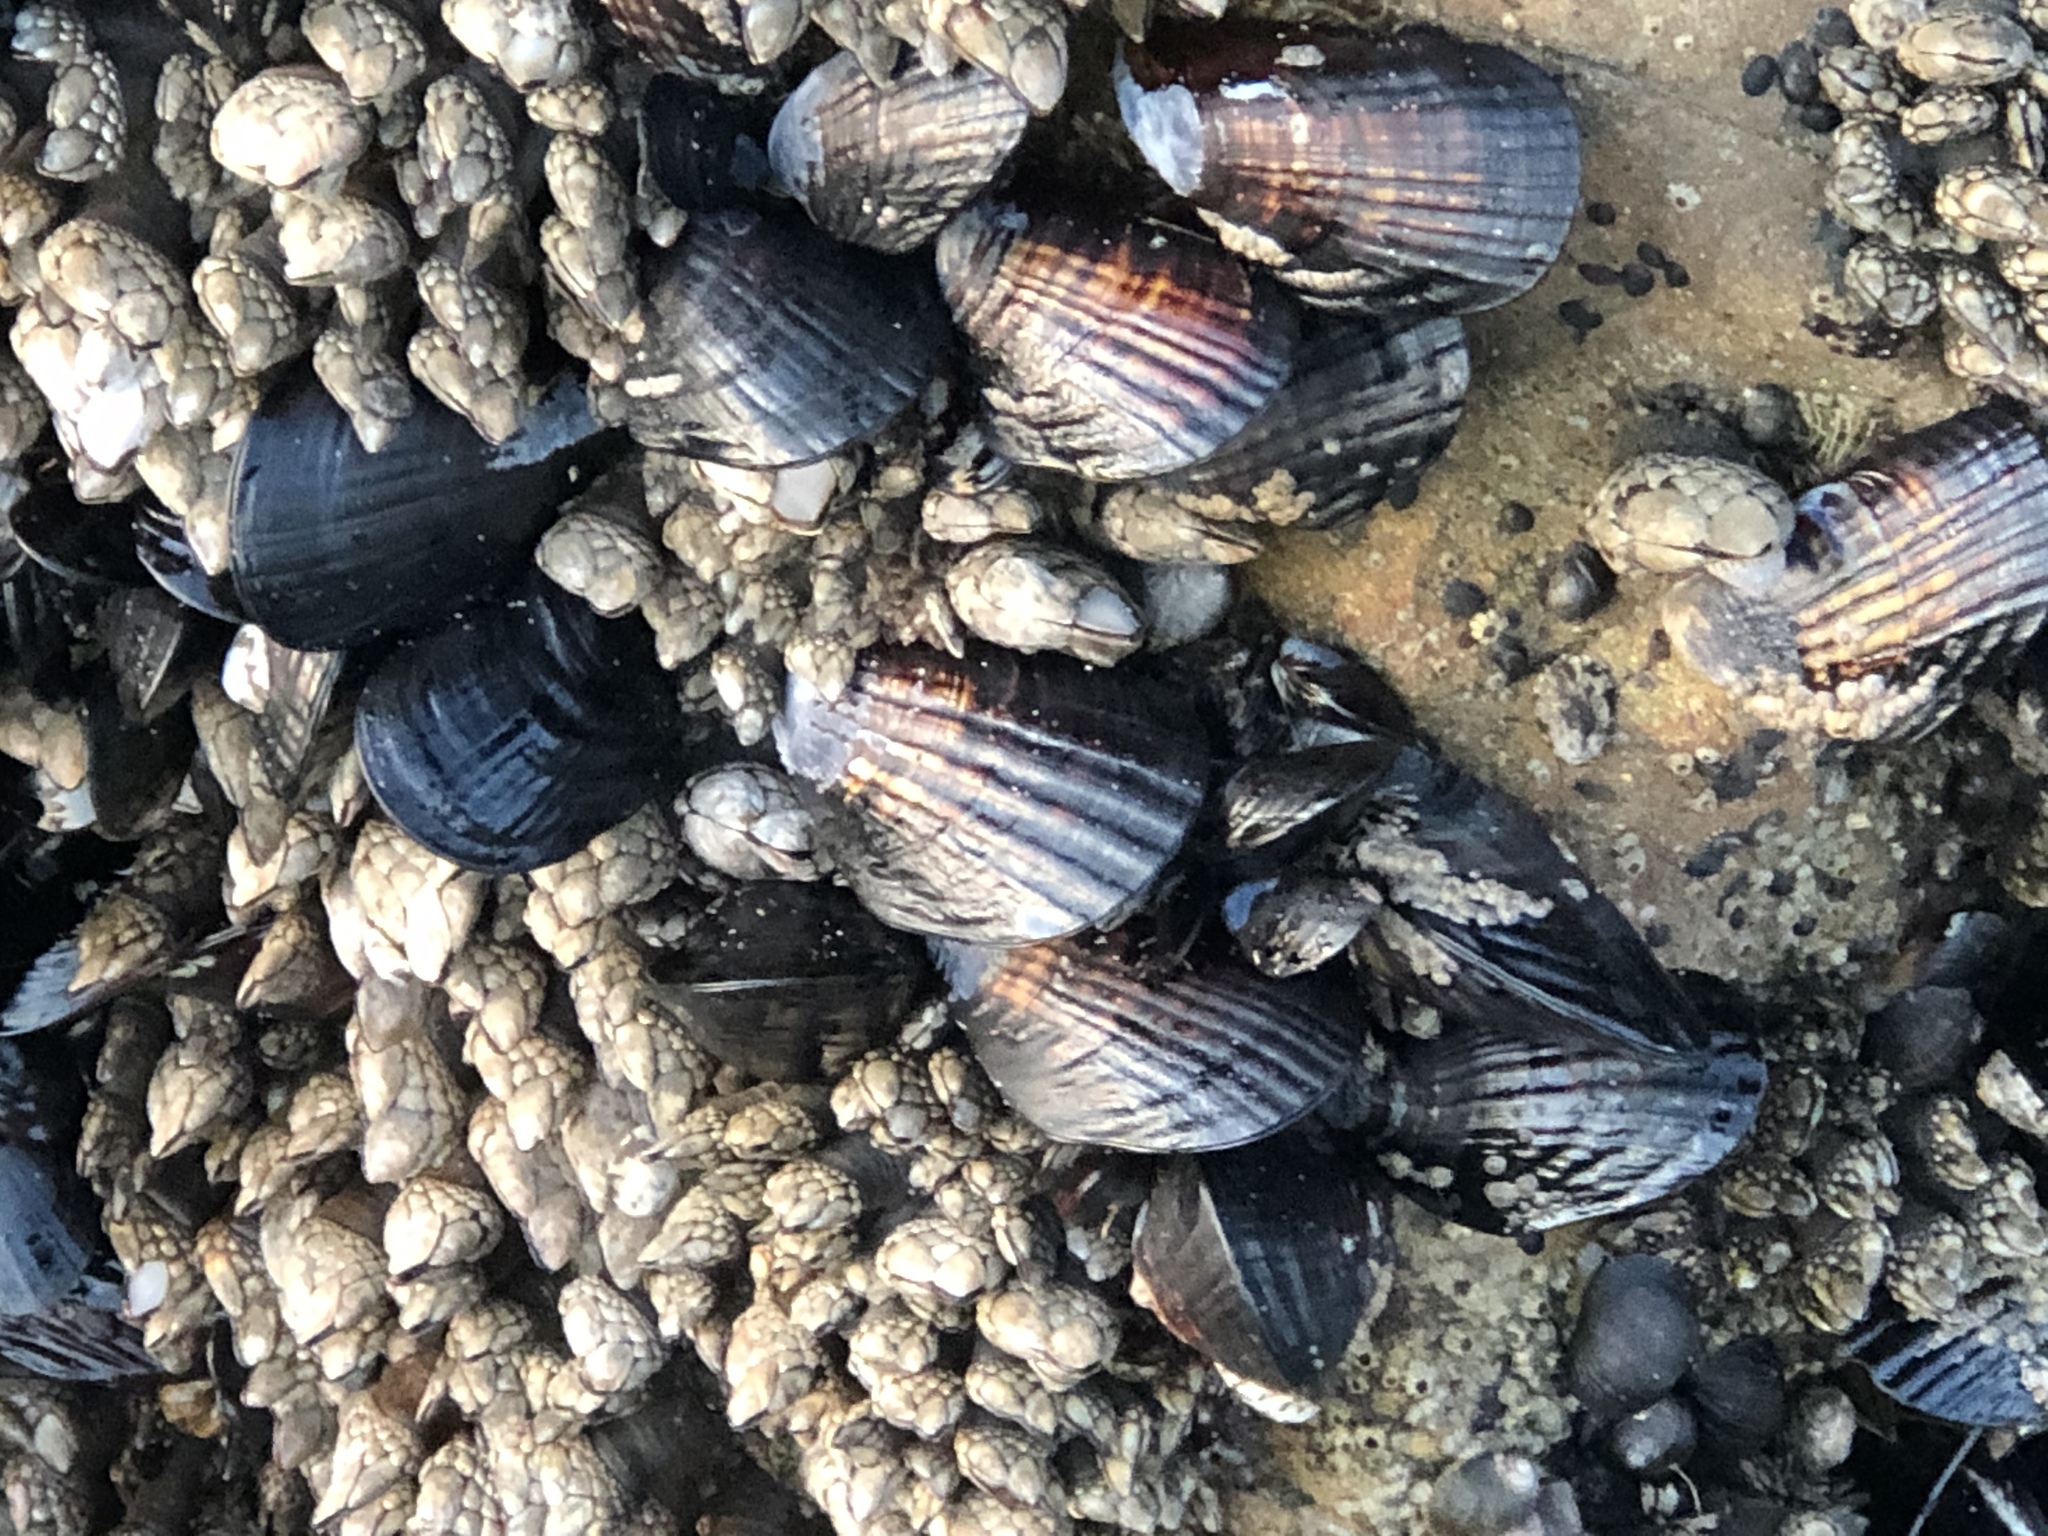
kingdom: Animalia
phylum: Mollusca
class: Bivalvia
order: Mytilida
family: Mytilidae
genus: Mytilus
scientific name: Mytilus californianus
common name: California mussel
